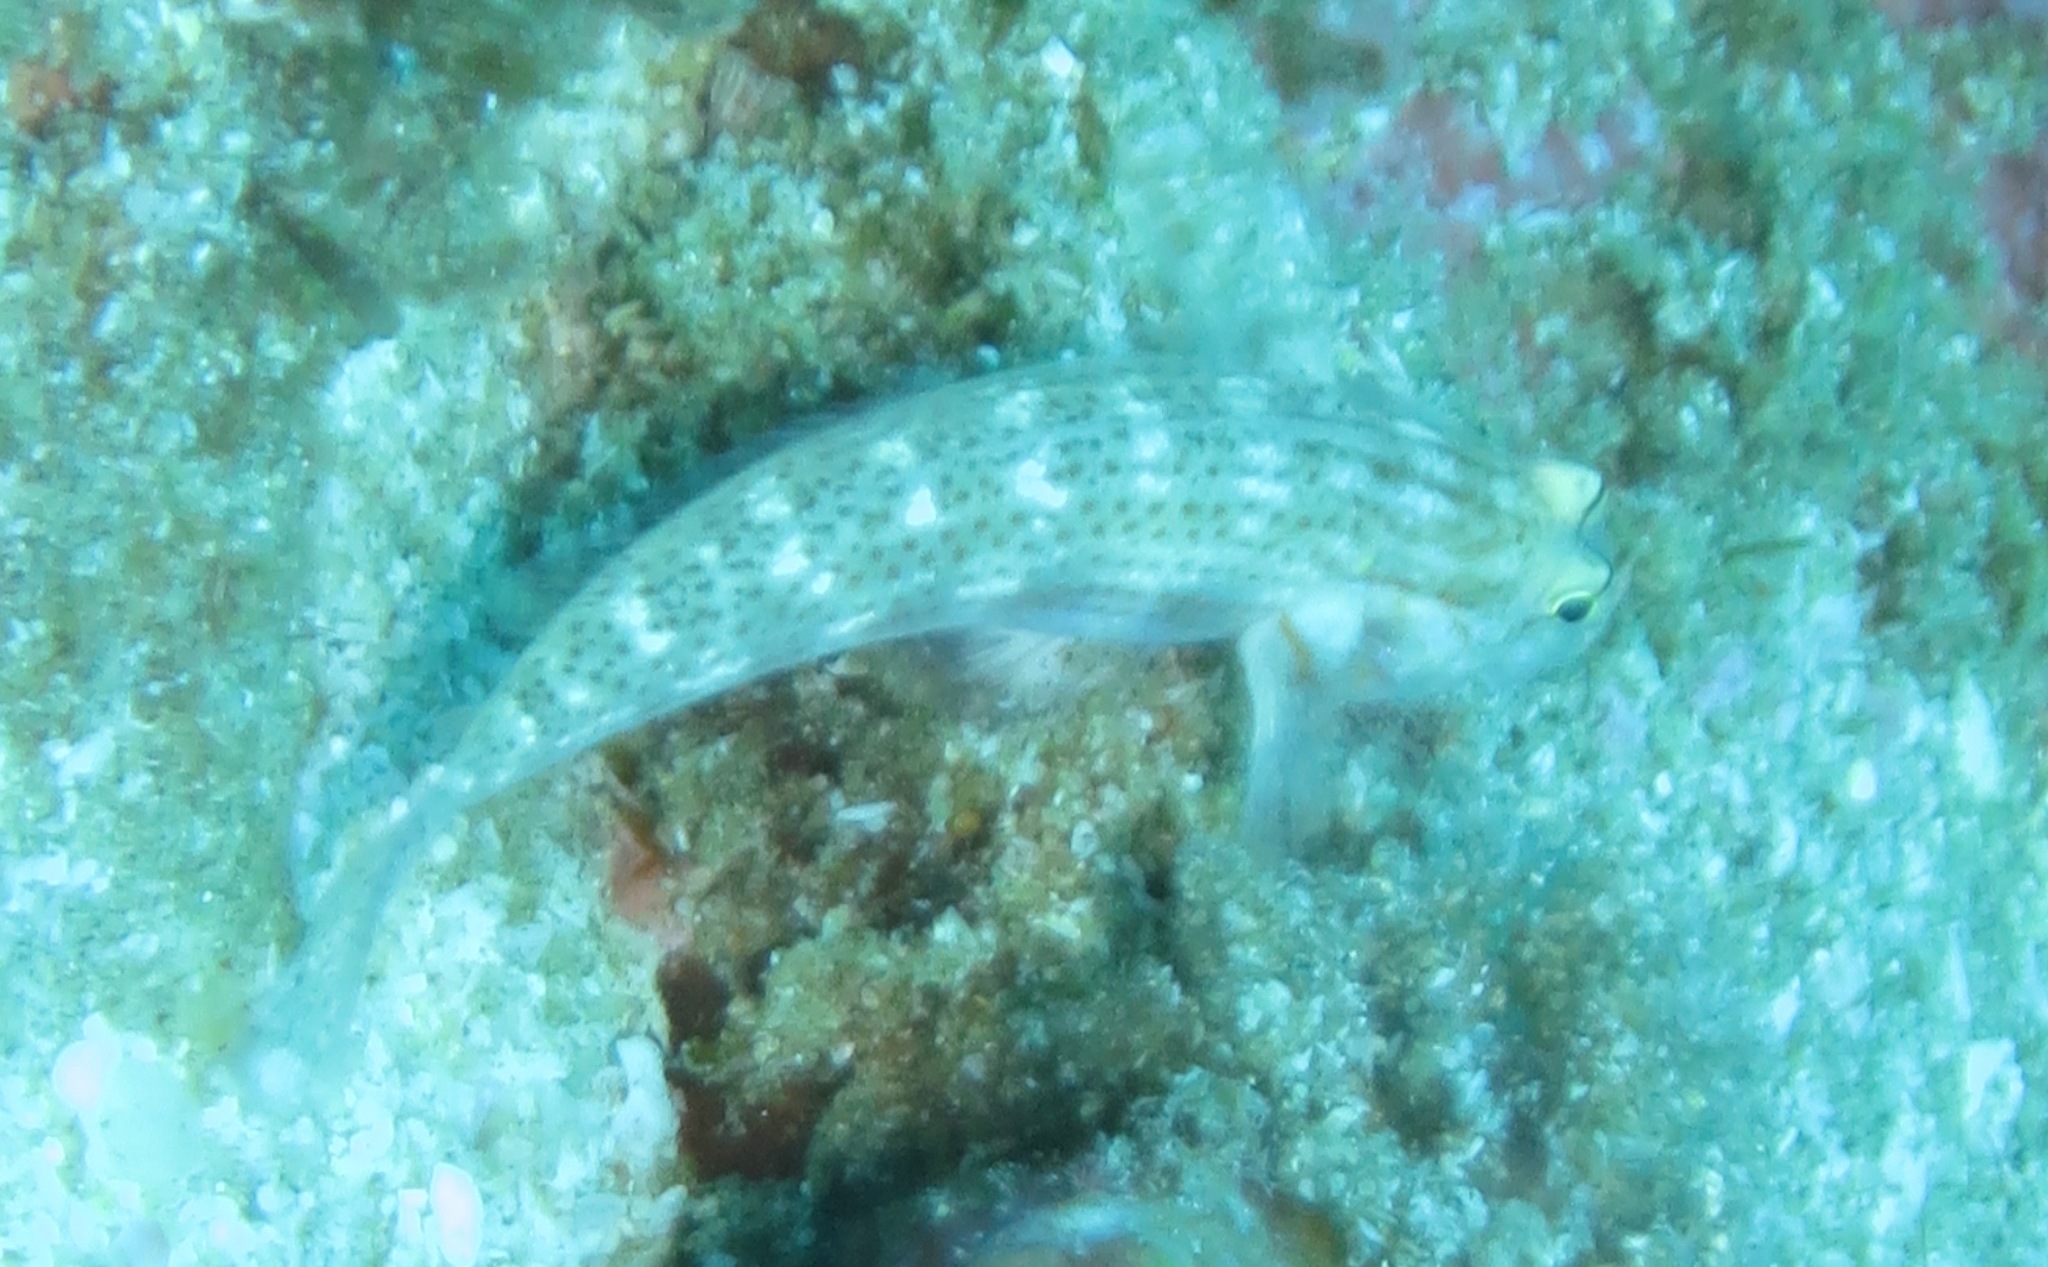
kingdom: Animalia
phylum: Chordata
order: Perciformes
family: Gobiidae
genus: Gnatholepis
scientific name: Gnatholepis cauerensis
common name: Bridled goby
